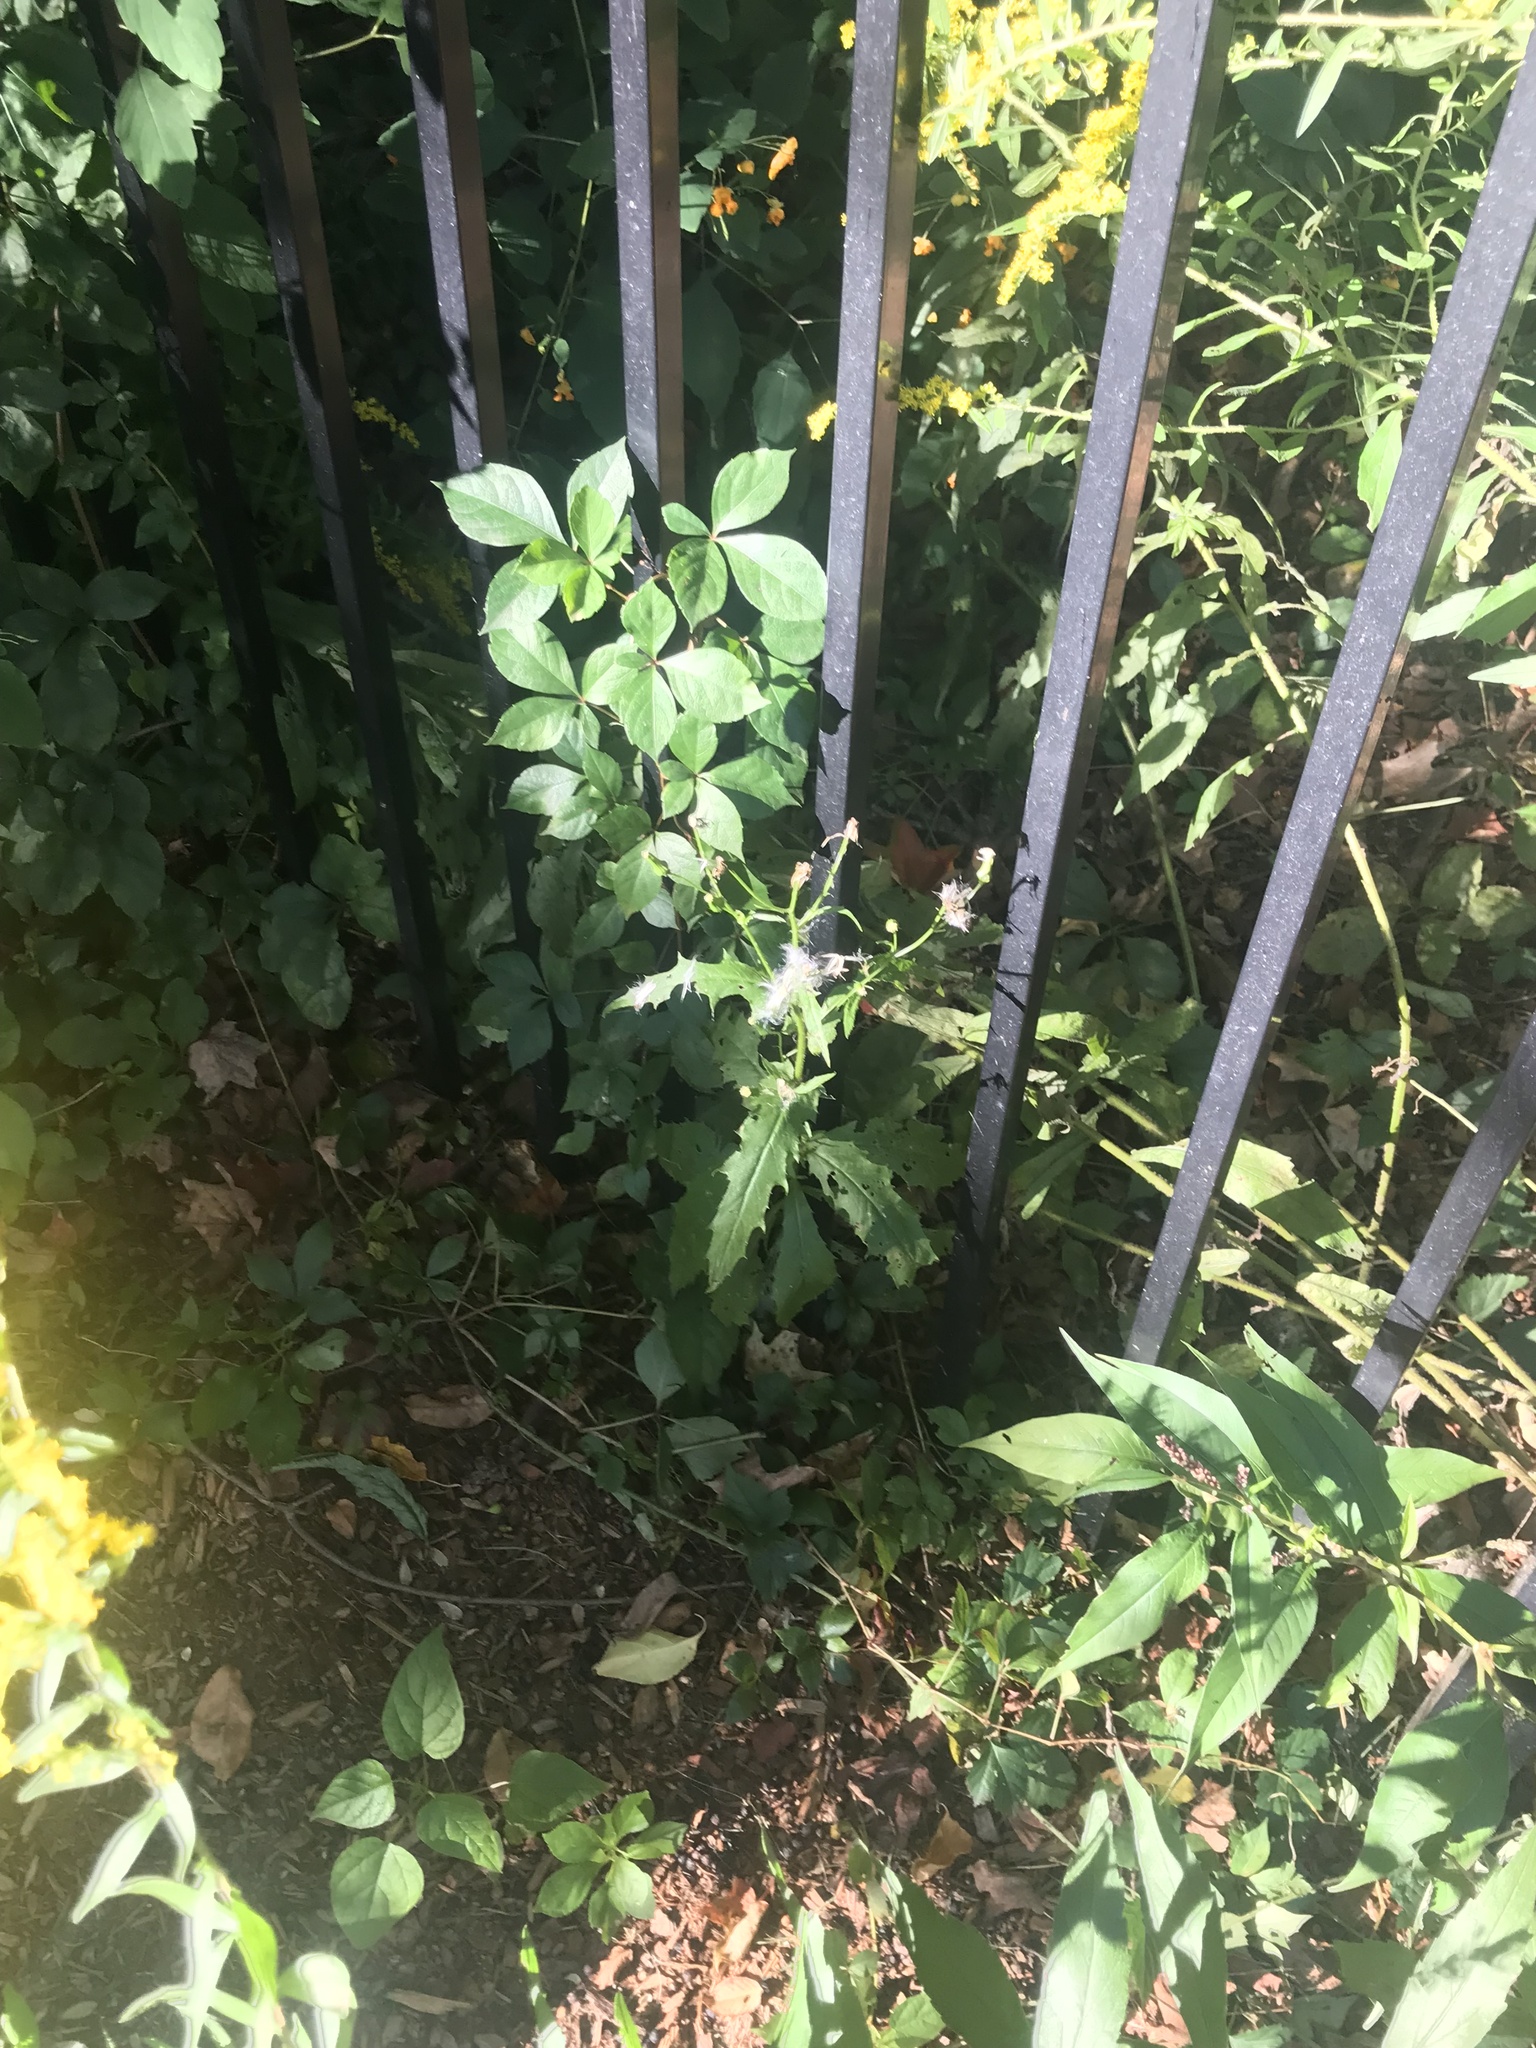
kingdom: Plantae
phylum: Tracheophyta
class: Magnoliopsida
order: Asterales
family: Asteraceae
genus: Erechtites
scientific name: Erechtites hieraciifolius
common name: American burnweed
